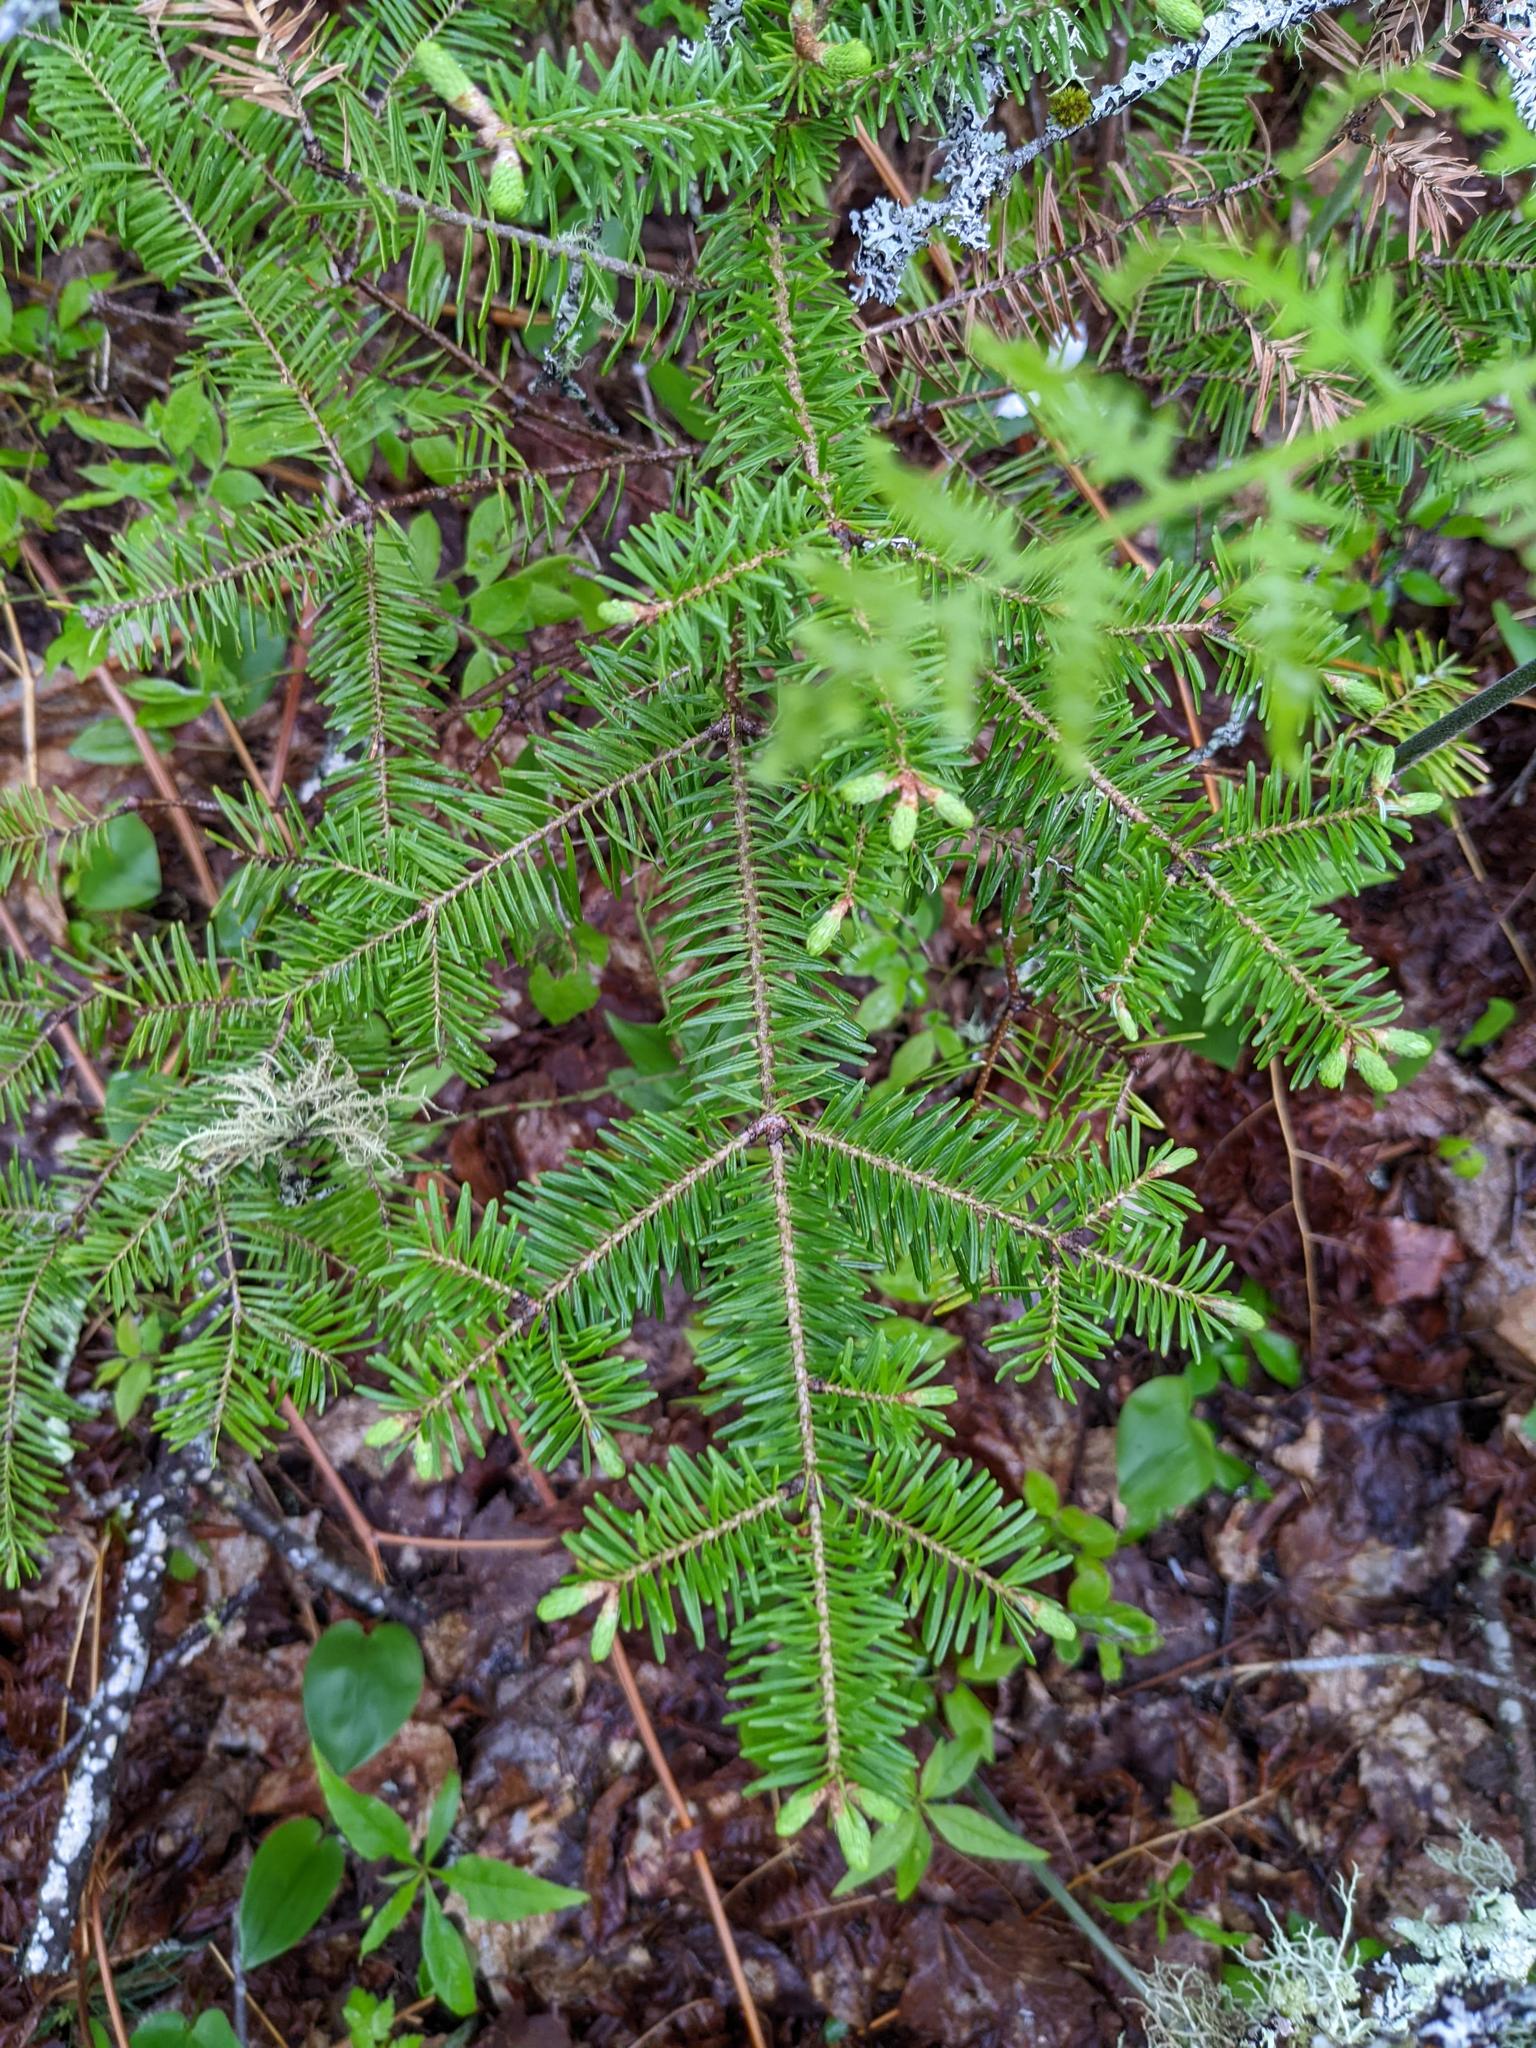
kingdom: Plantae
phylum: Tracheophyta
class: Pinopsida
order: Pinales
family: Pinaceae
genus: Abies
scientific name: Abies balsamea
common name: Balsam fir
